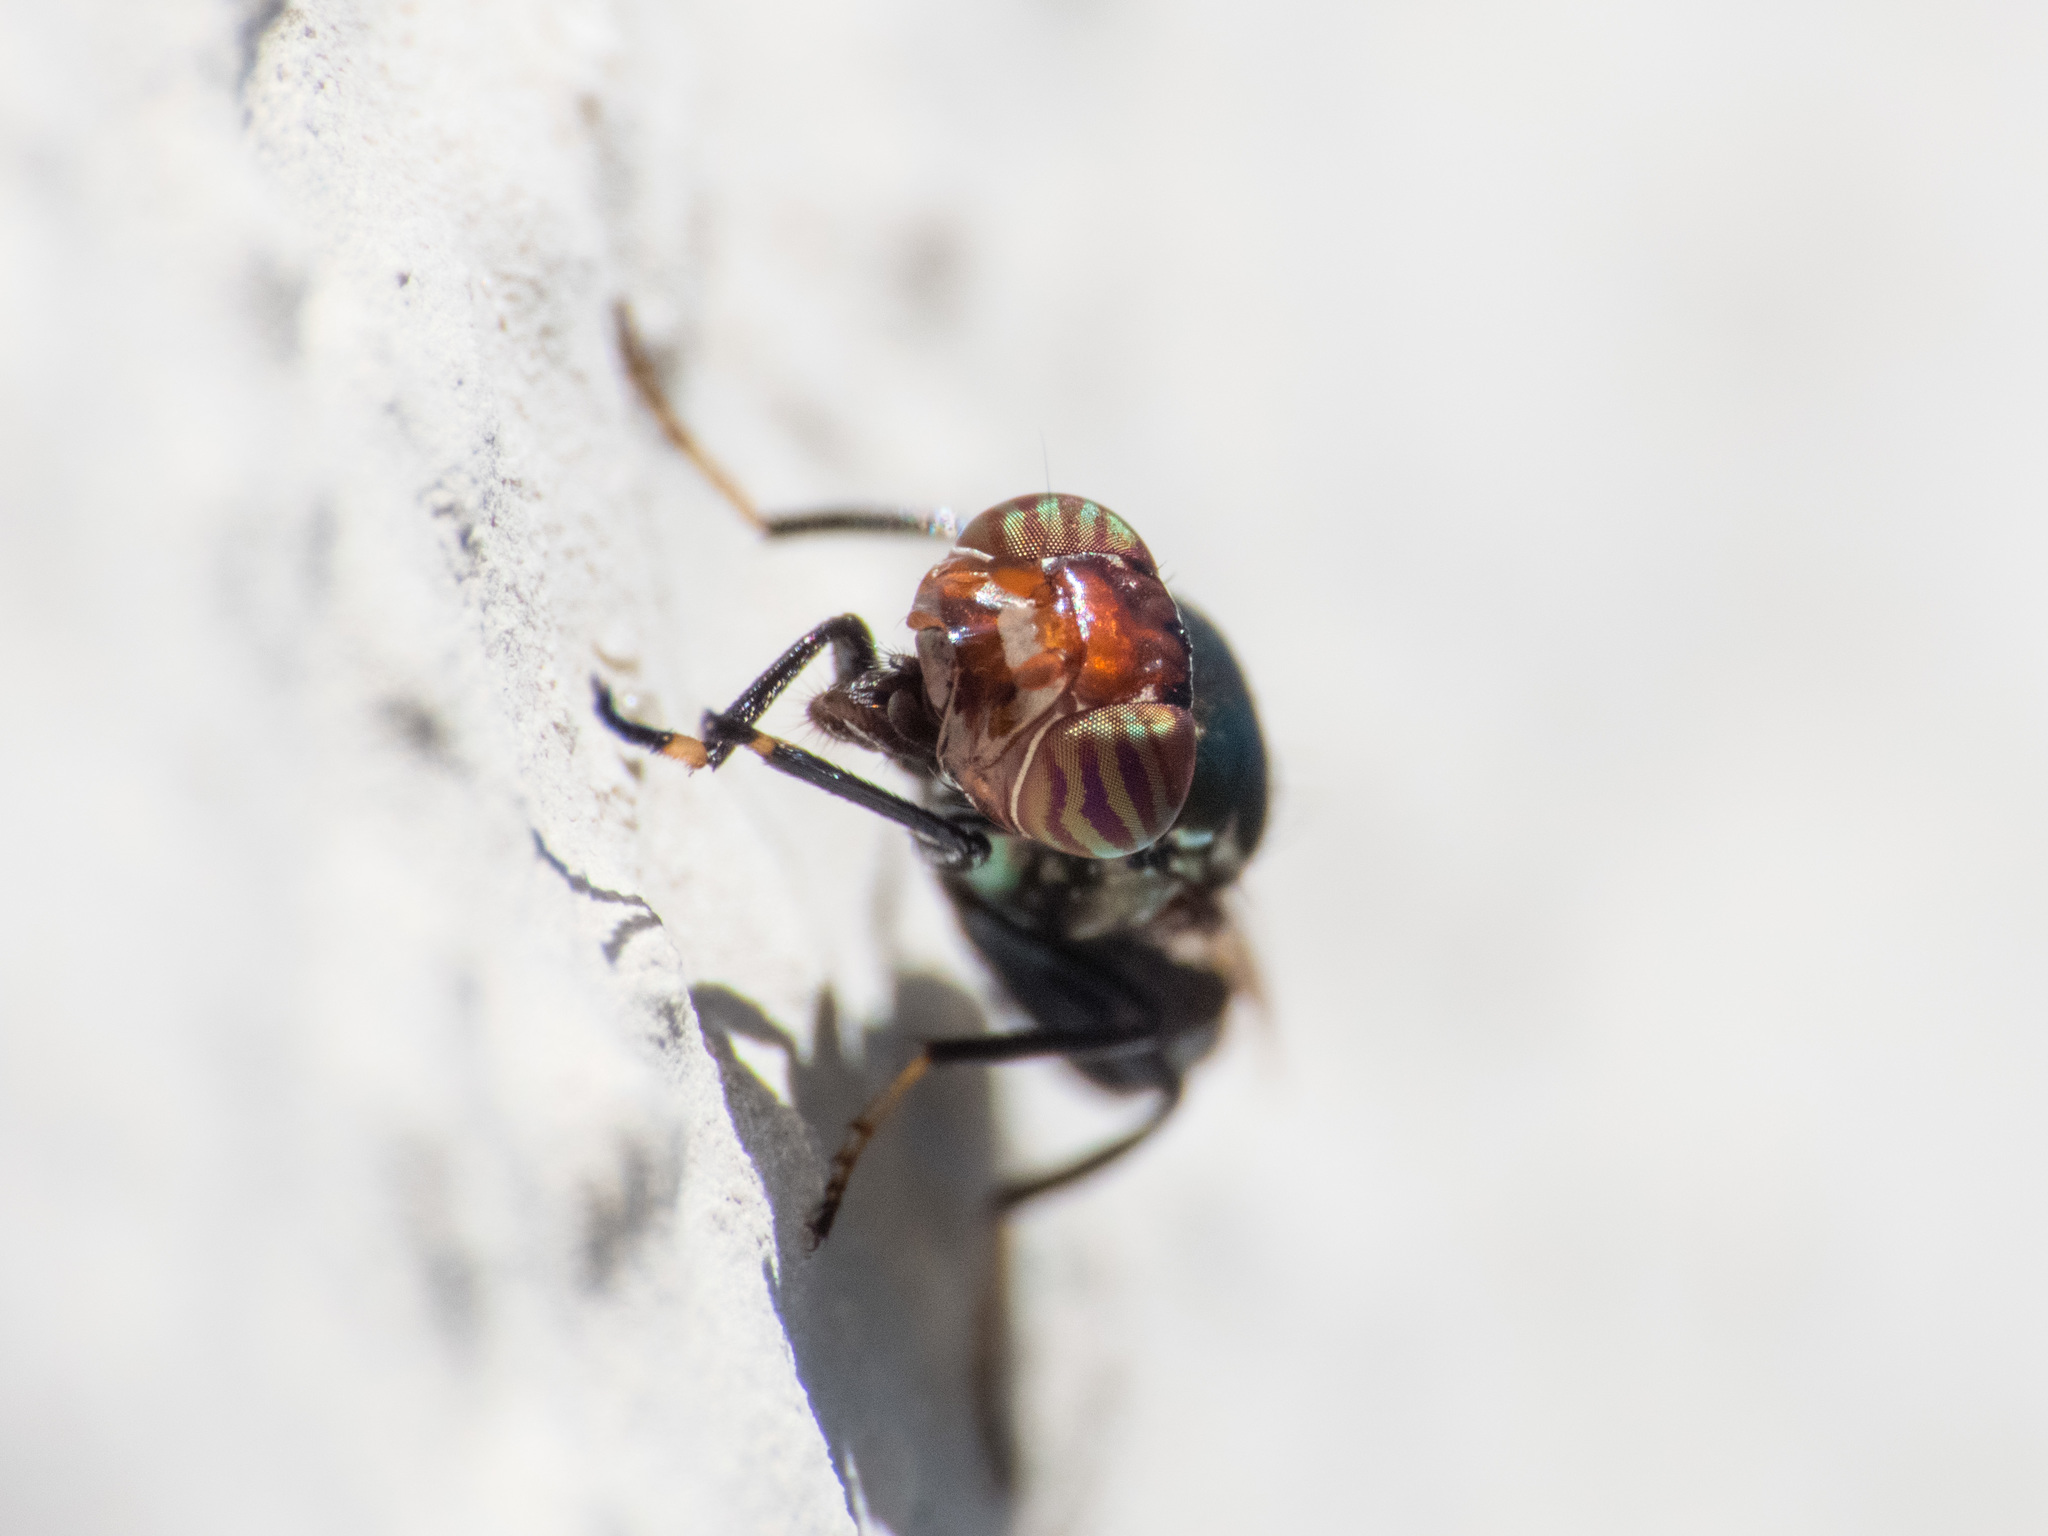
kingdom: Animalia
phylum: Arthropoda
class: Insecta
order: Diptera
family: Ulidiidae
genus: Physiphora
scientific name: Physiphora alceae
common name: Picture-winged fly
